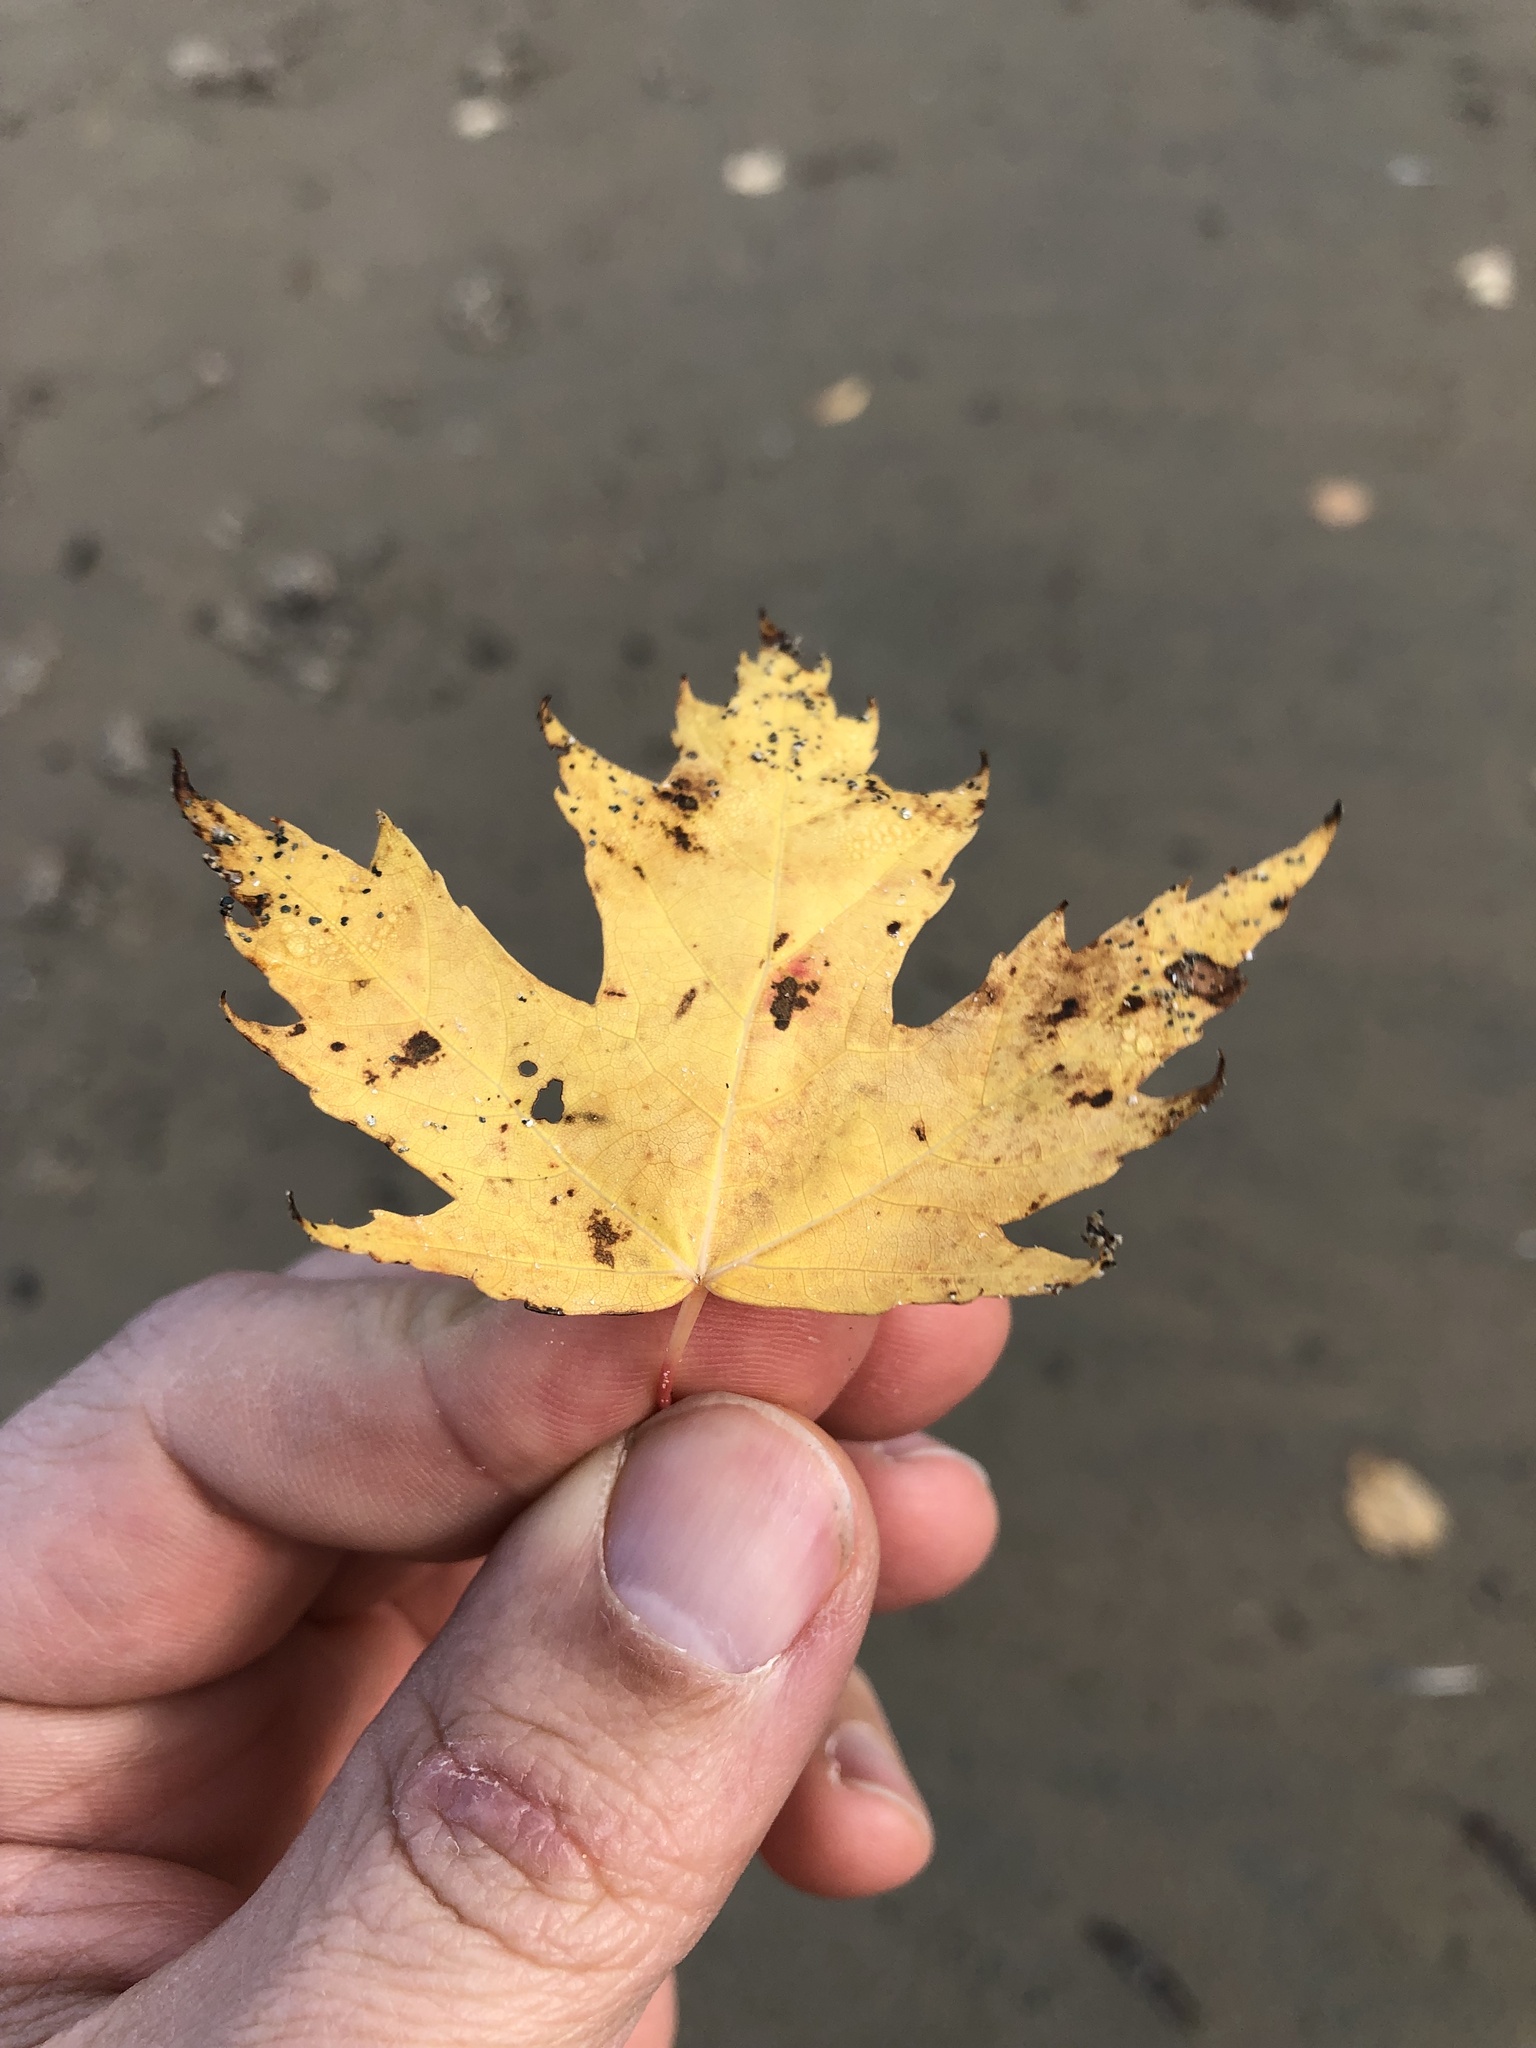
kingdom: Plantae
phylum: Tracheophyta
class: Magnoliopsida
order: Sapindales
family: Sapindaceae
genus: Acer
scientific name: Acer saccharinum
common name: Silver maple
